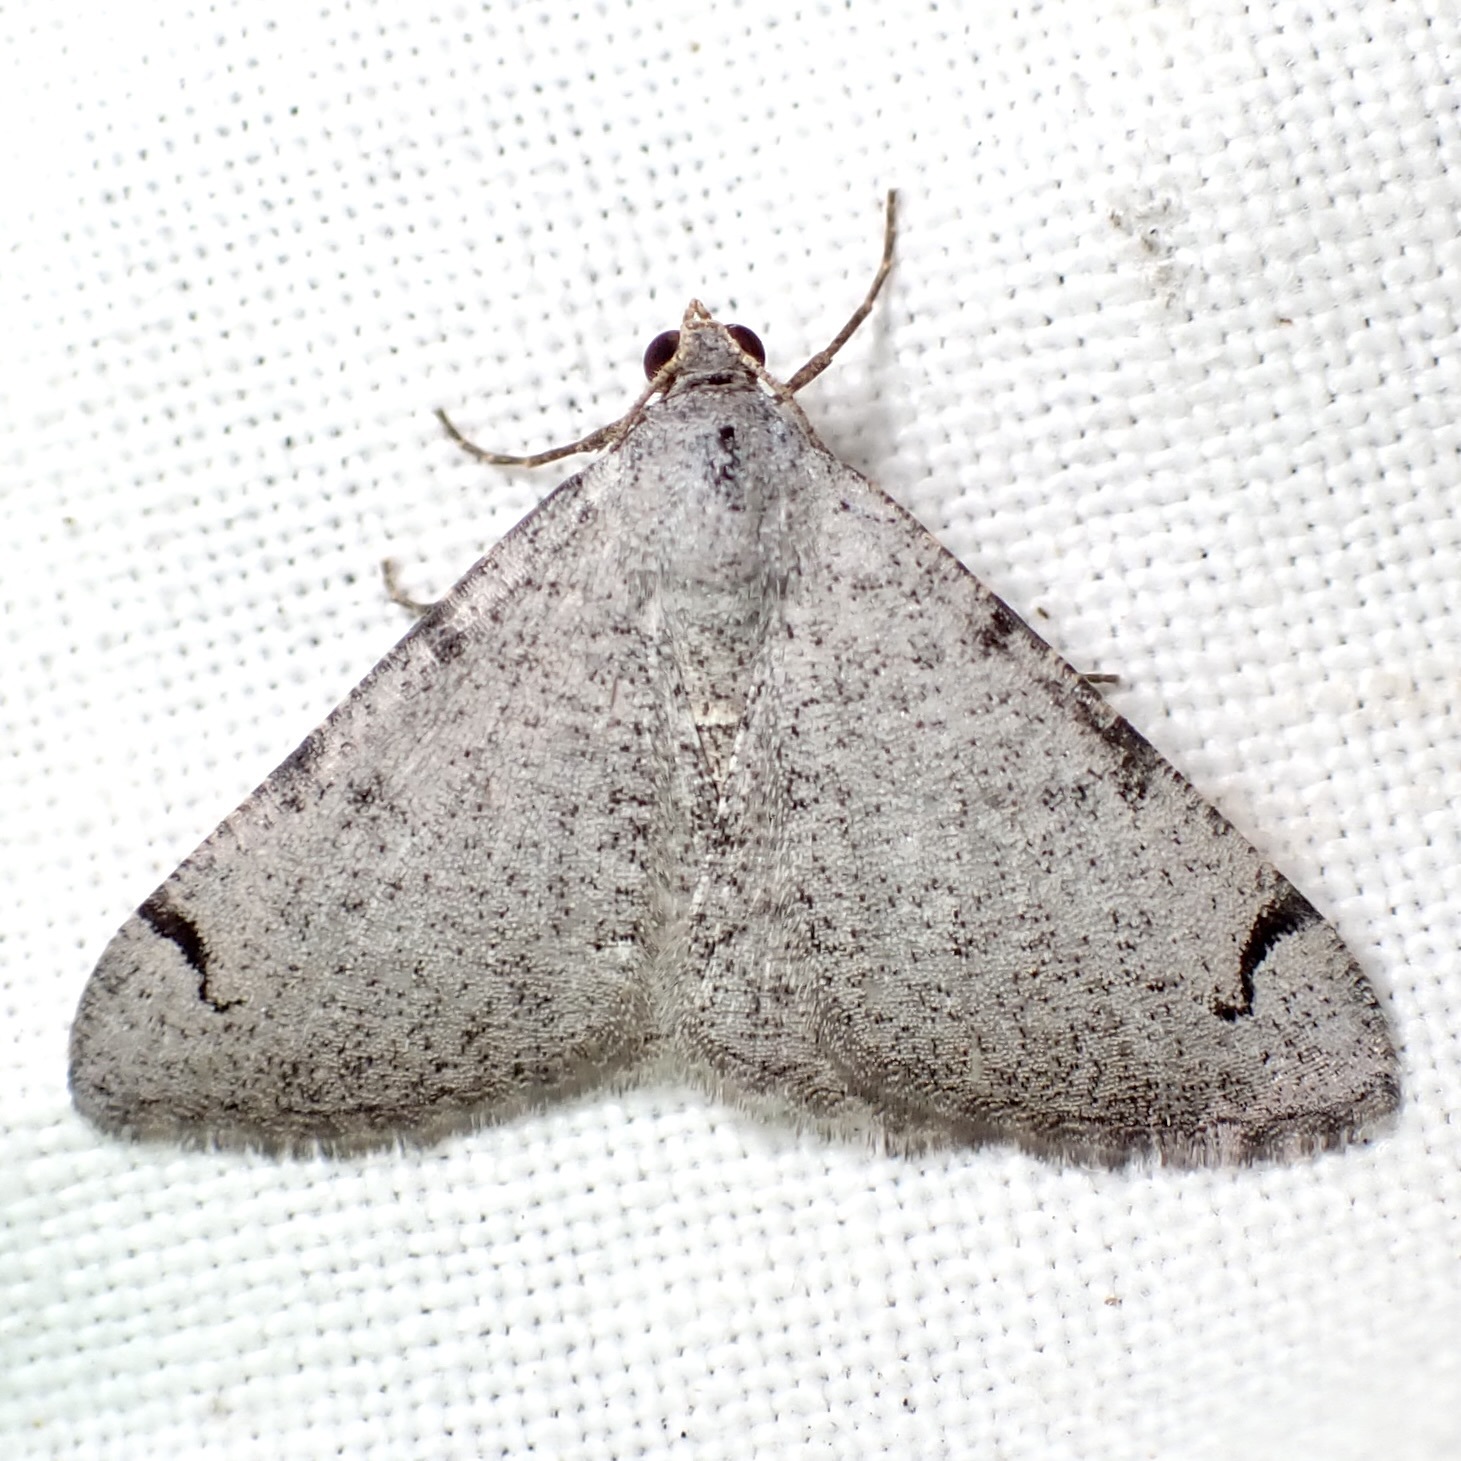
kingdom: Animalia
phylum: Arthropoda
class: Insecta
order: Lepidoptera
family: Geometridae
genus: Digrammia
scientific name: Digrammia triviata
